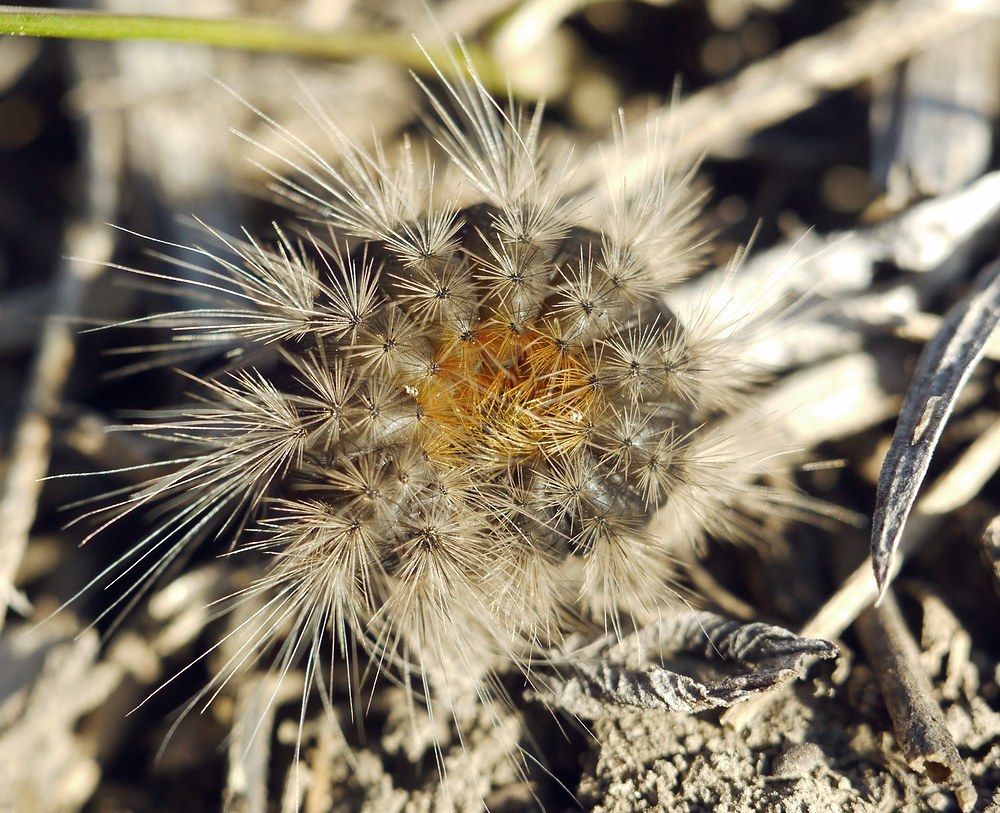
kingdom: Animalia
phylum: Arthropoda
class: Insecta
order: Lepidoptera
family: Erebidae
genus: Eucharia
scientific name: Eucharia festiva
